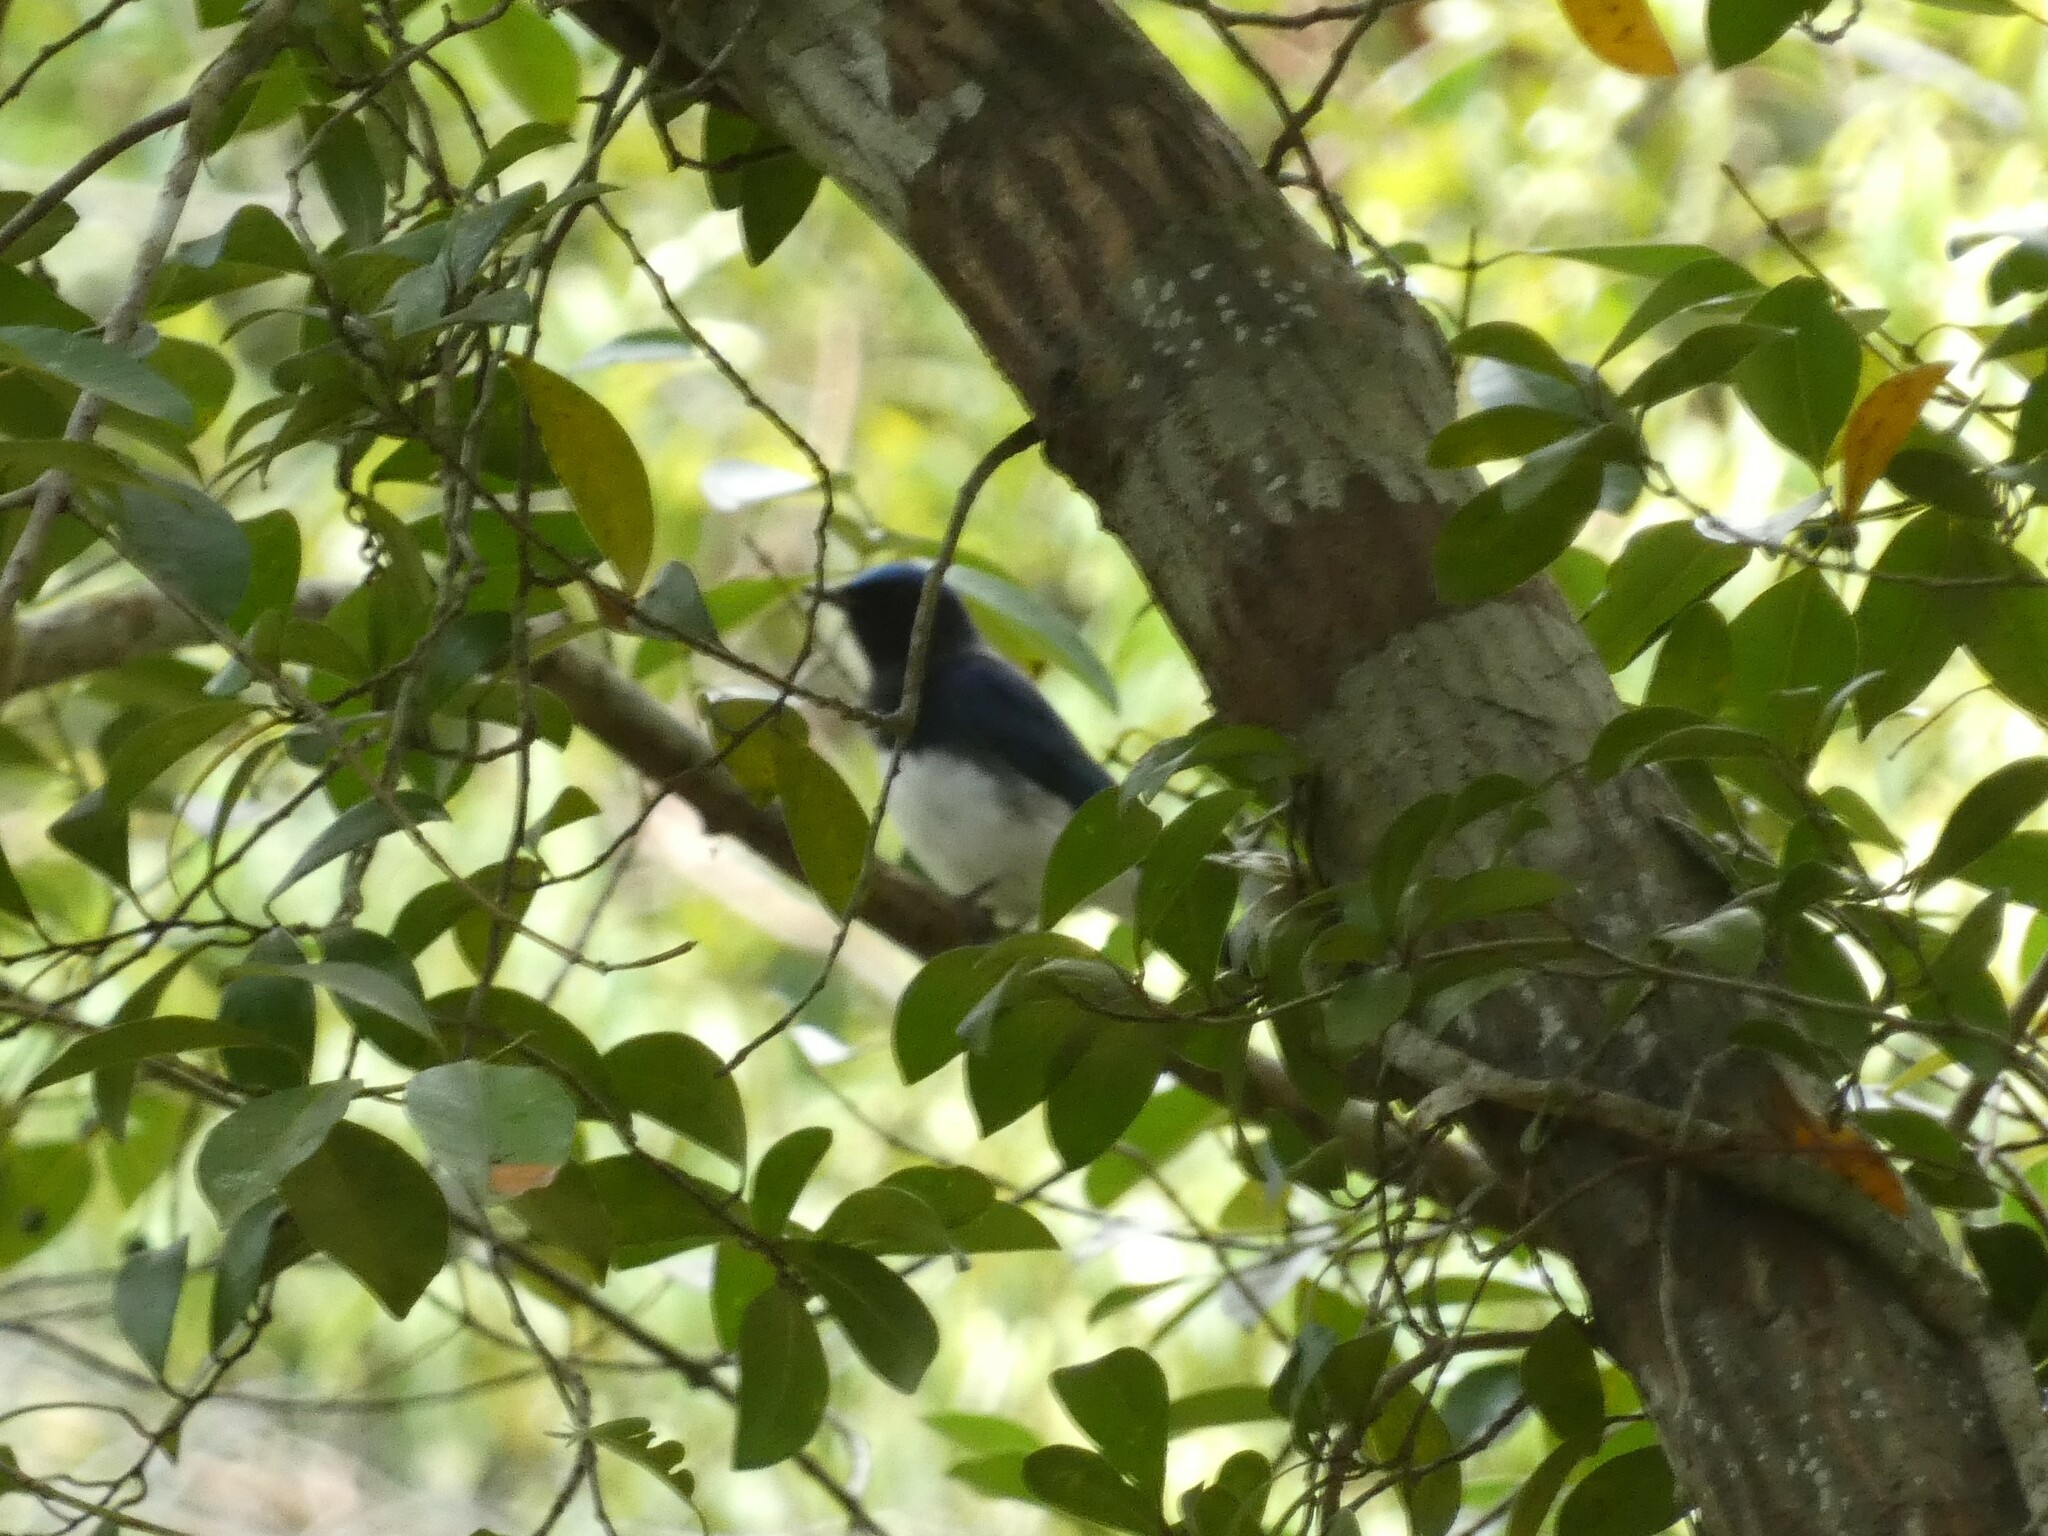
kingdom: Animalia
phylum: Chordata
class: Aves
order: Passeriformes
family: Muscicapidae
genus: Cyanoptila
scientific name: Cyanoptila cyanomelana
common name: Blue-and-white flycatcher
